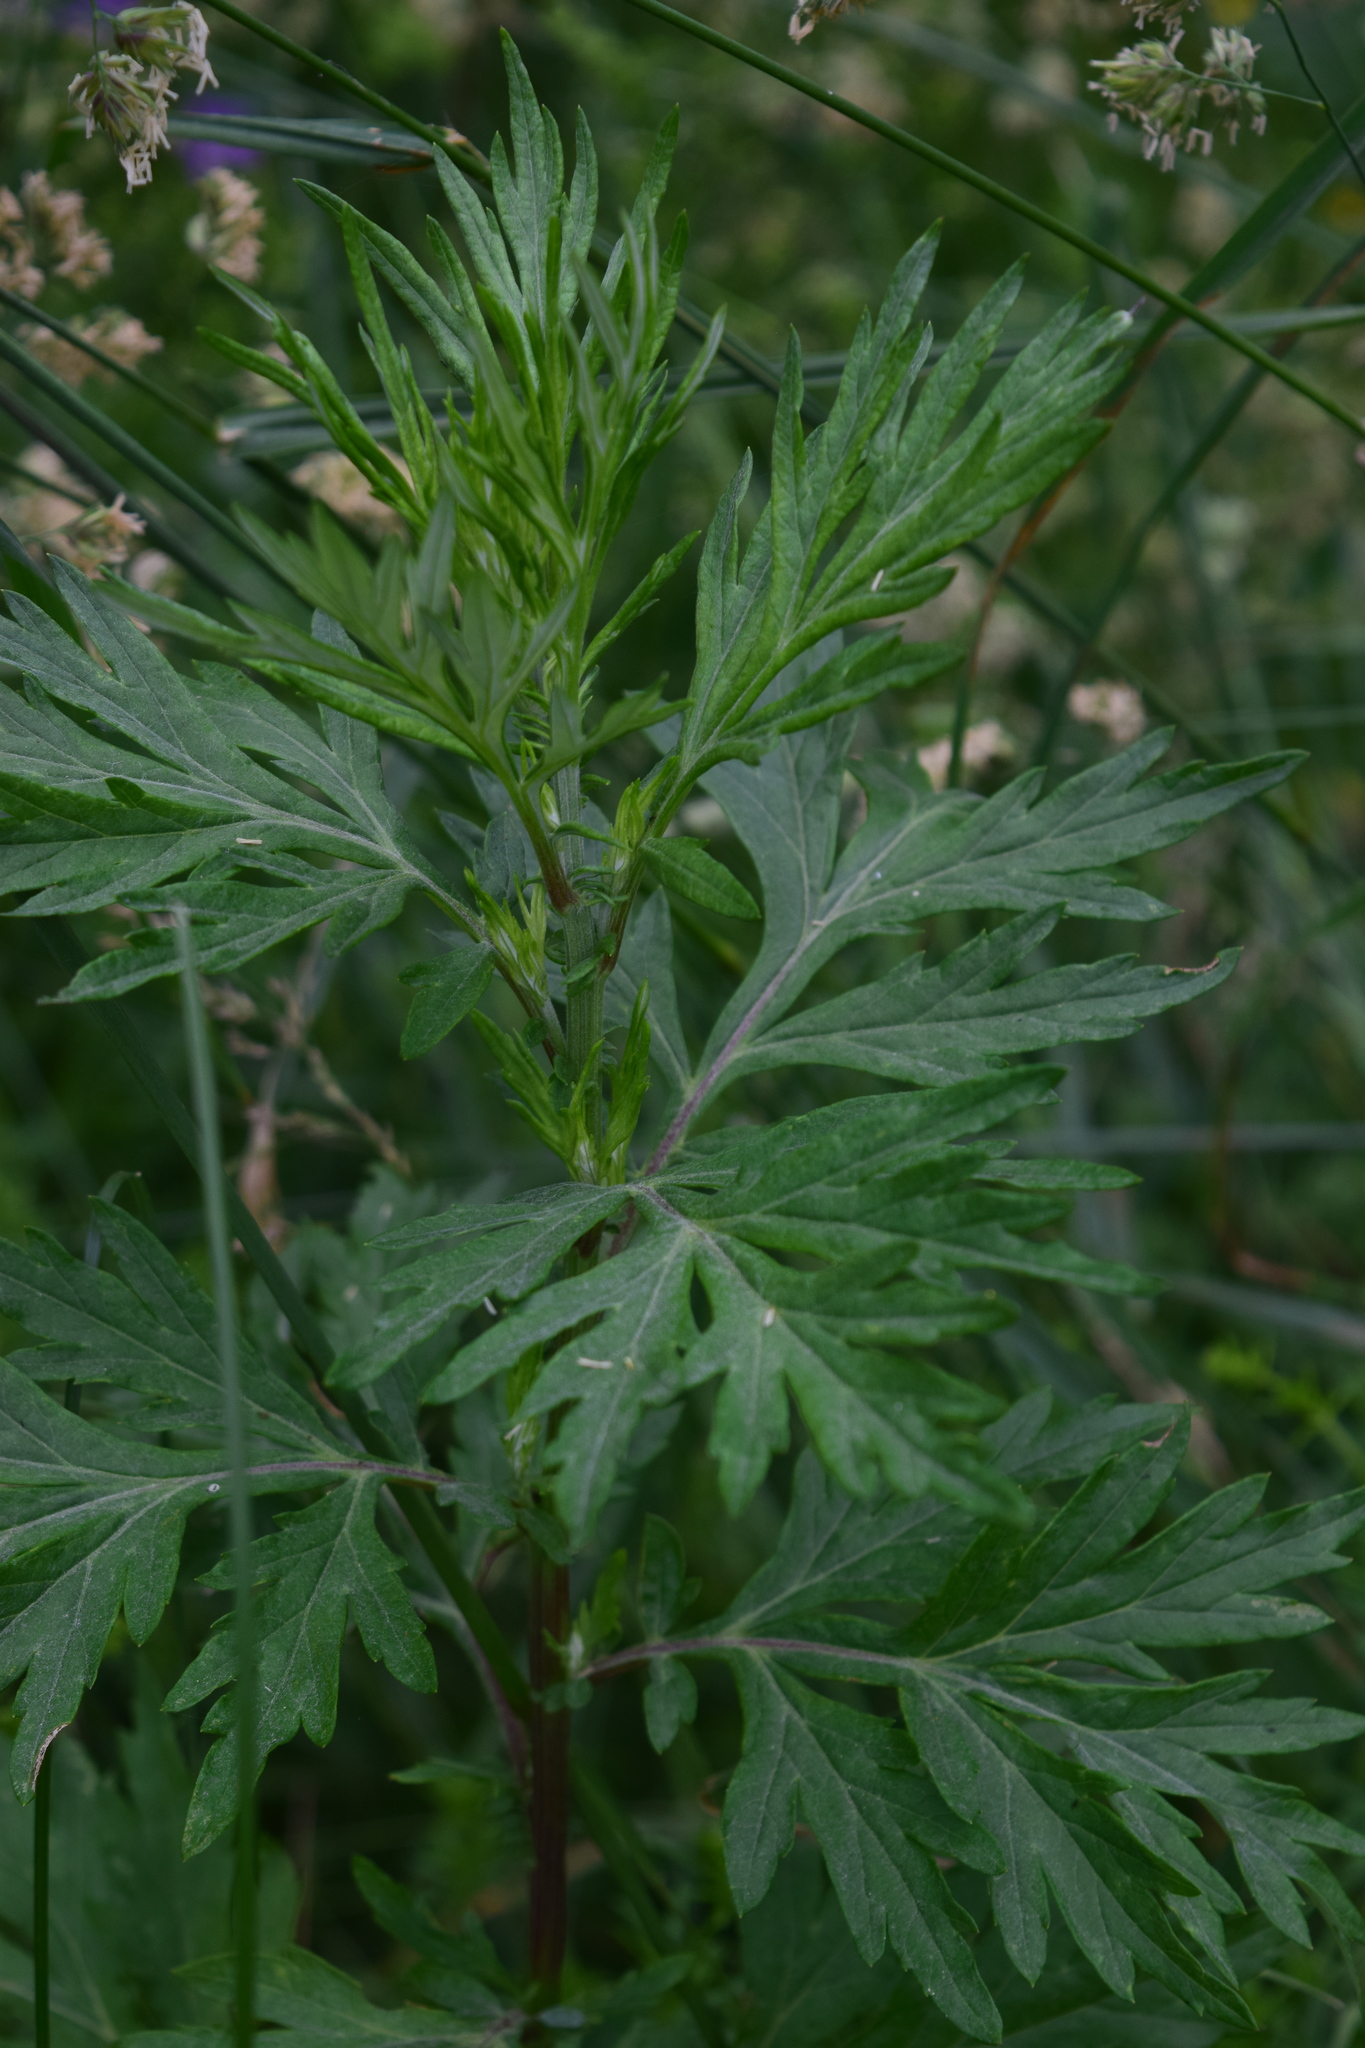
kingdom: Plantae
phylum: Tracheophyta
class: Magnoliopsida
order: Asterales
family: Asteraceae
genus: Artemisia
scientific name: Artemisia vulgaris
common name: Mugwort
